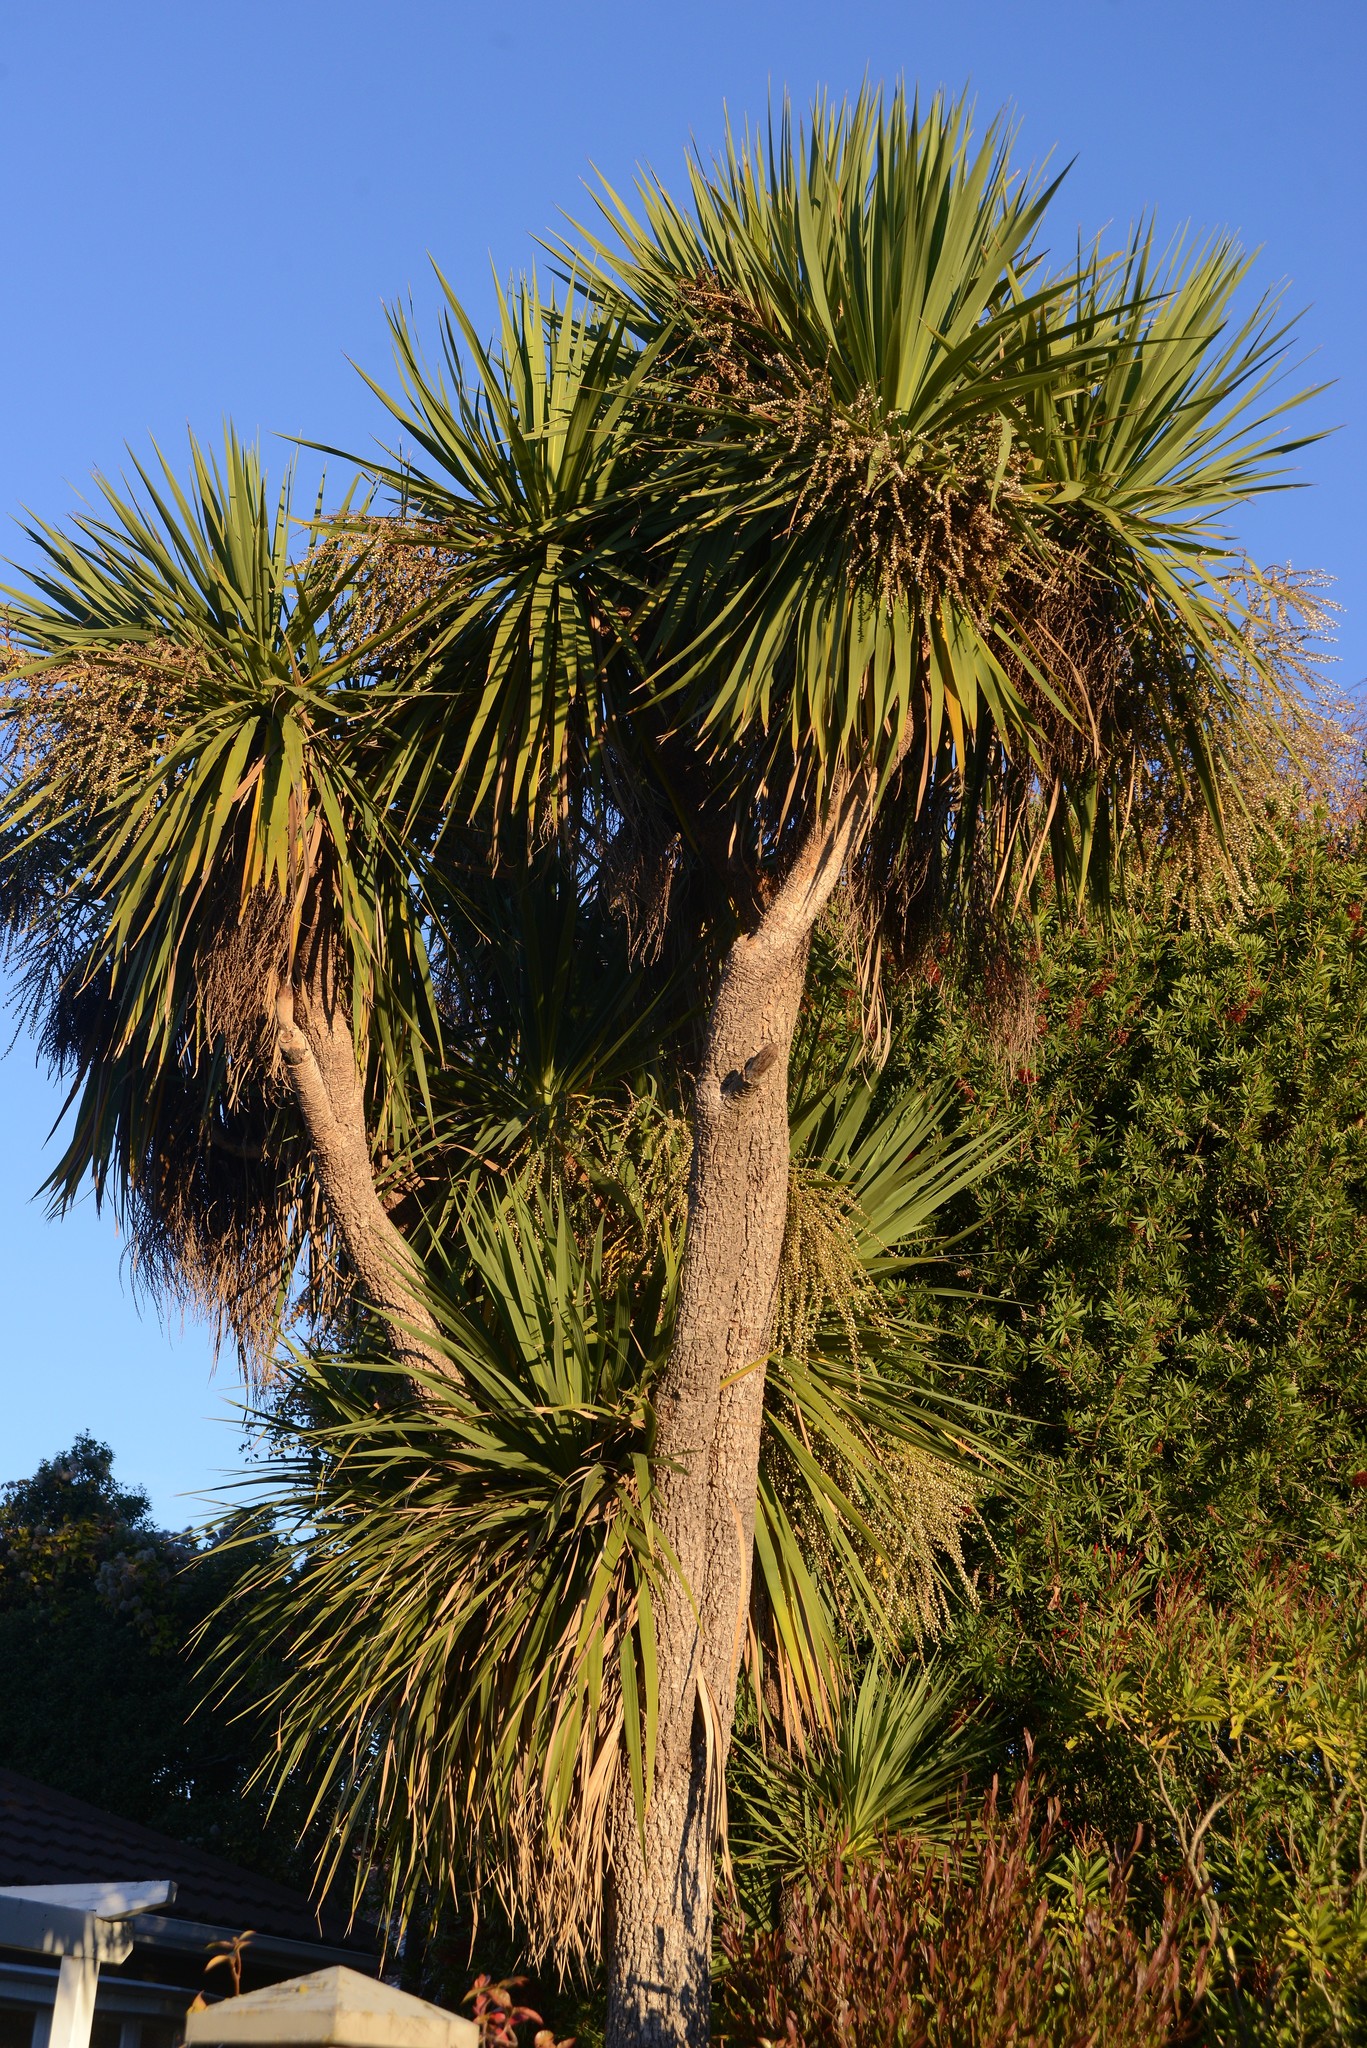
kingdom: Plantae
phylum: Tracheophyta
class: Liliopsida
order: Asparagales
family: Asparagaceae
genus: Cordyline
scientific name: Cordyline australis
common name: Cabbage-palm
